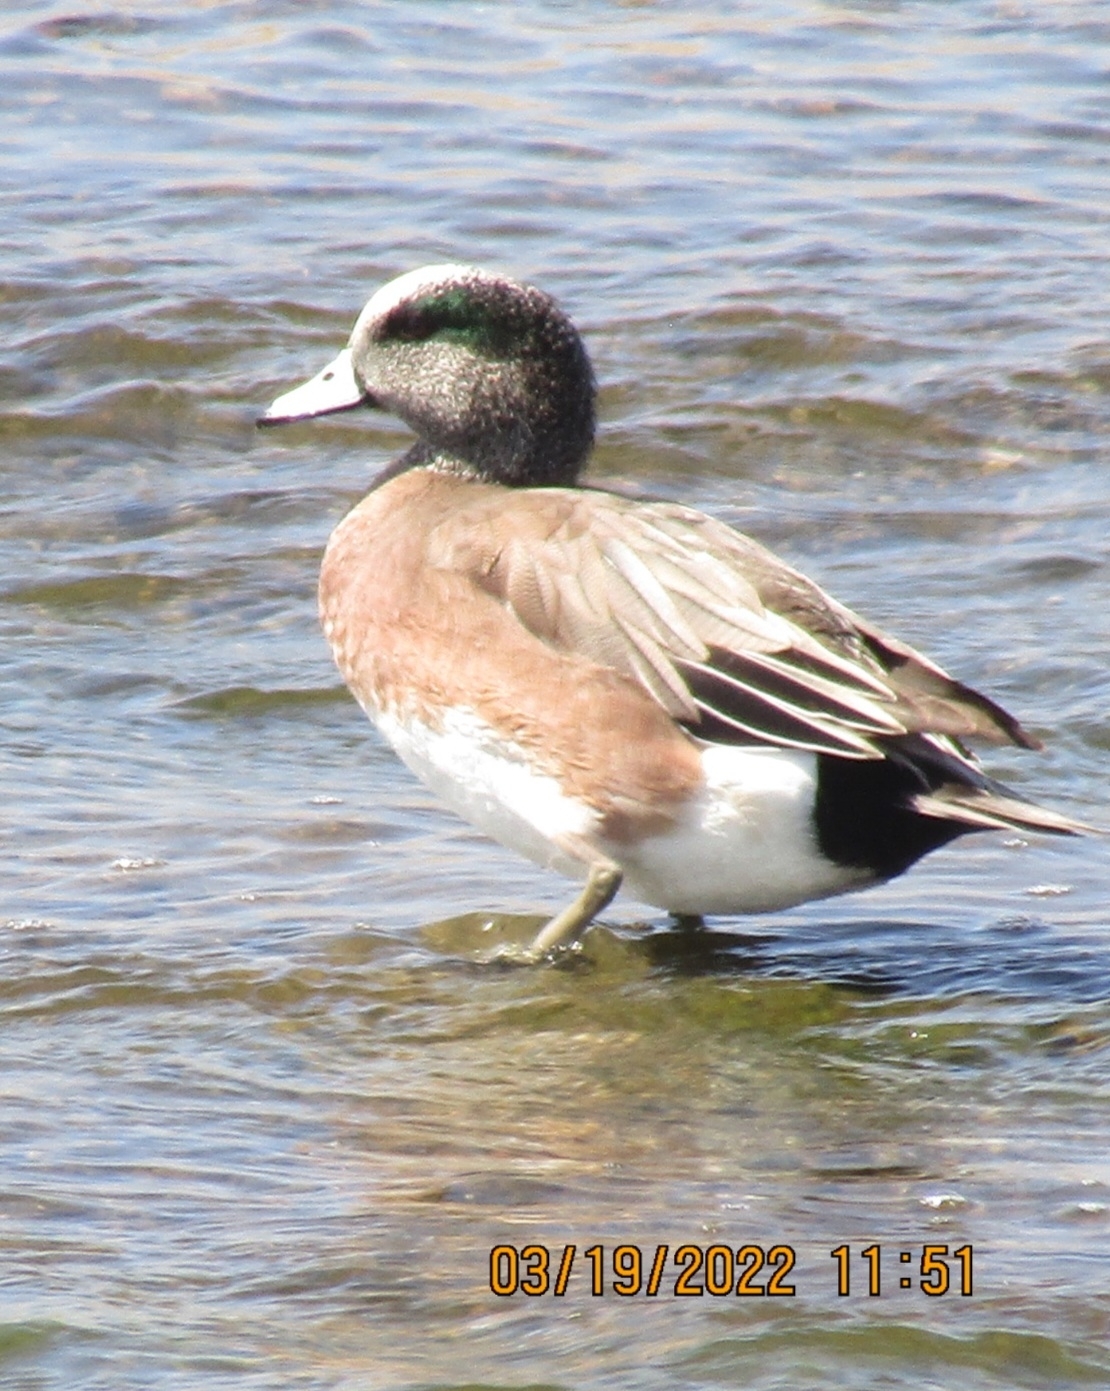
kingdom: Animalia
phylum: Chordata
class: Aves
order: Anseriformes
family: Anatidae
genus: Mareca
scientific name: Mareca americana
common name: American wigeon
